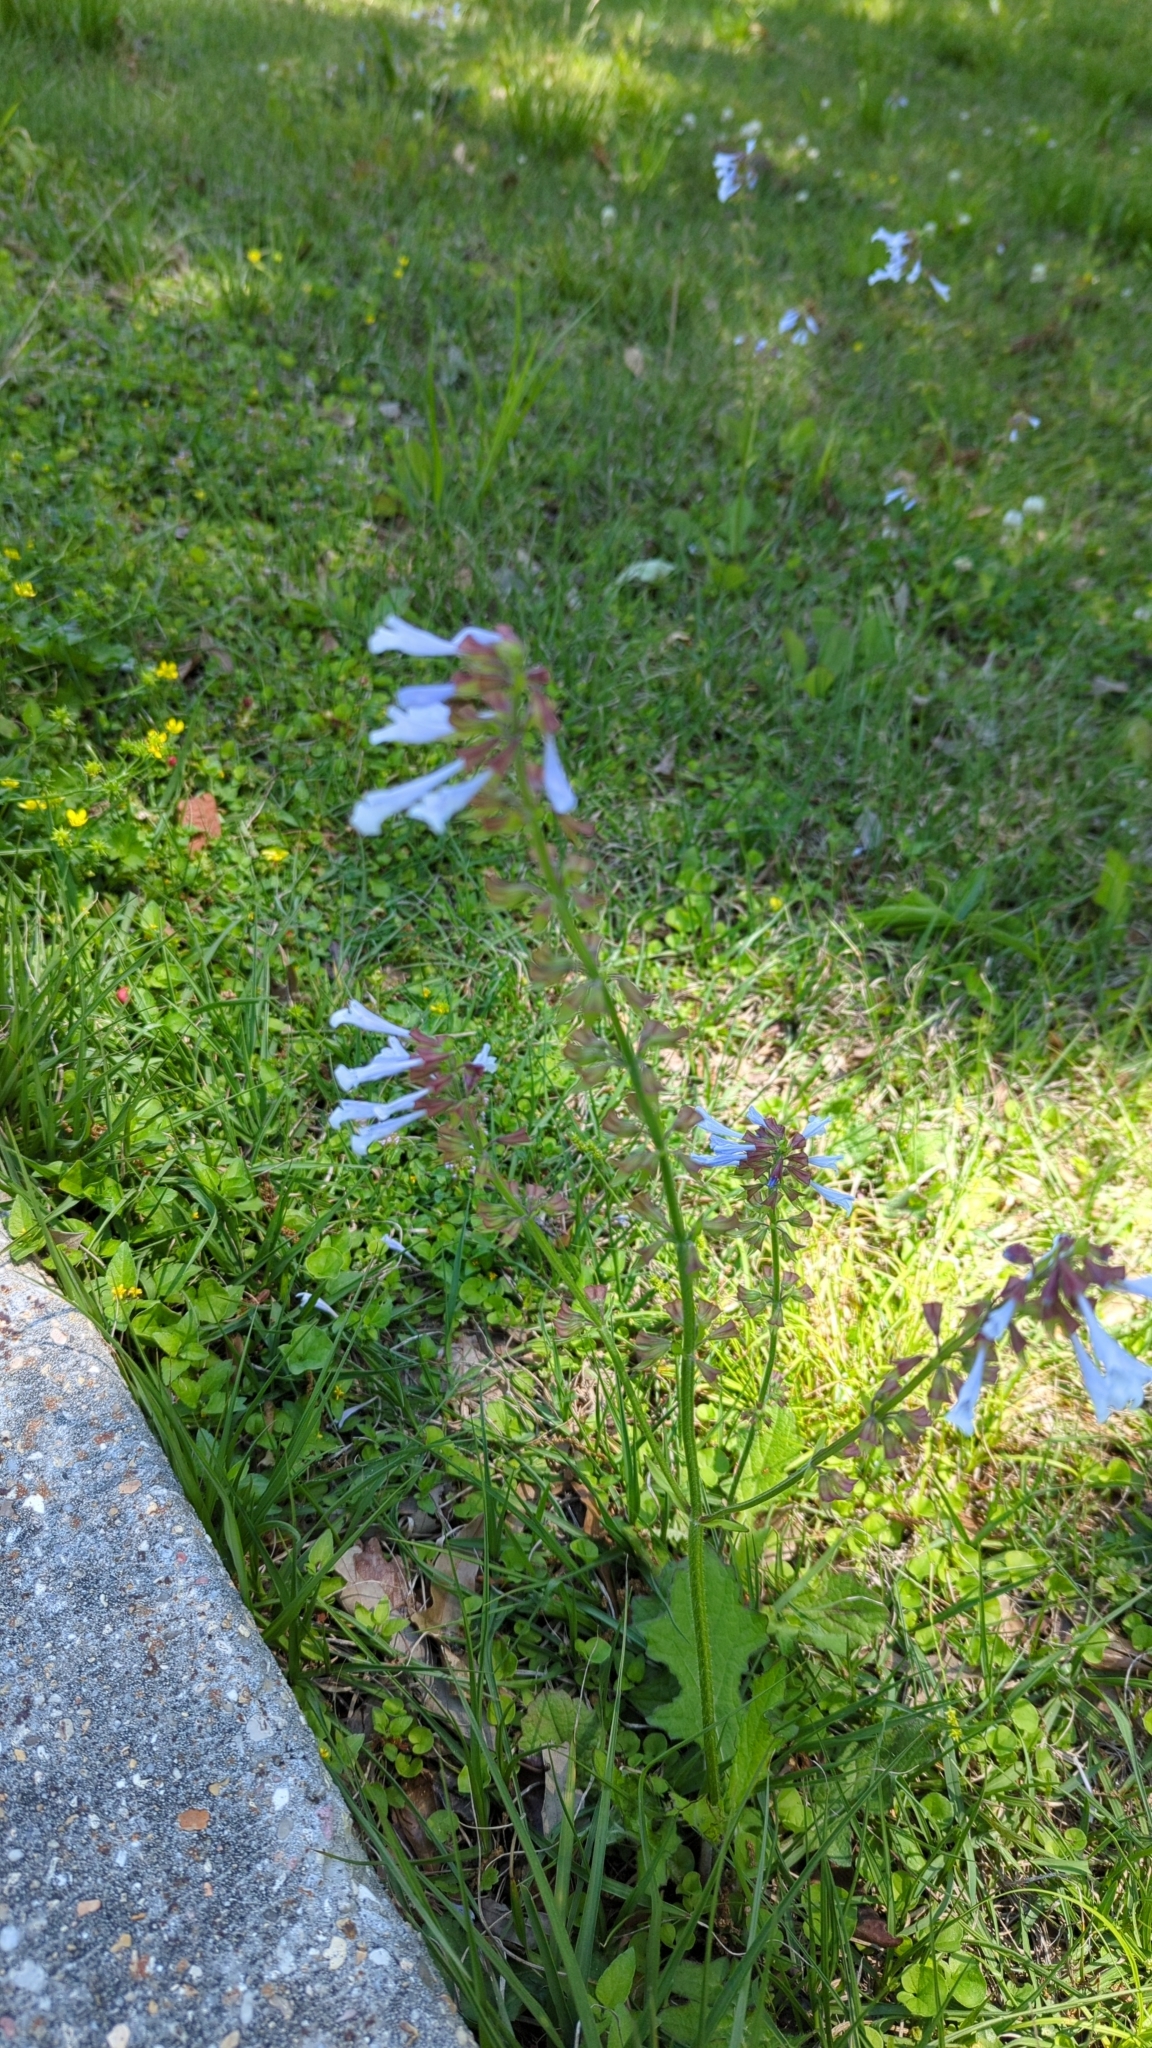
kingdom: Plantae
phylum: Tracheophyta
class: Magnoliopsida
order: Lamiales
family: Lamiaceae
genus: Salvia
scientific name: Salvia lyrata
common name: Cancerweed
